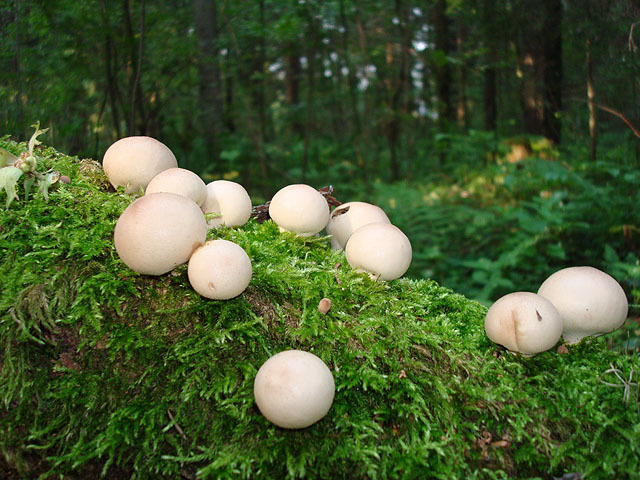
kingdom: Fungi
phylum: Basidiomycota
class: Agaricomycetes
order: Agaricales
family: Lycoperdaceae
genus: Apioperdon
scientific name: Apioperdon pyriforme
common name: Pear-shaped puffball
